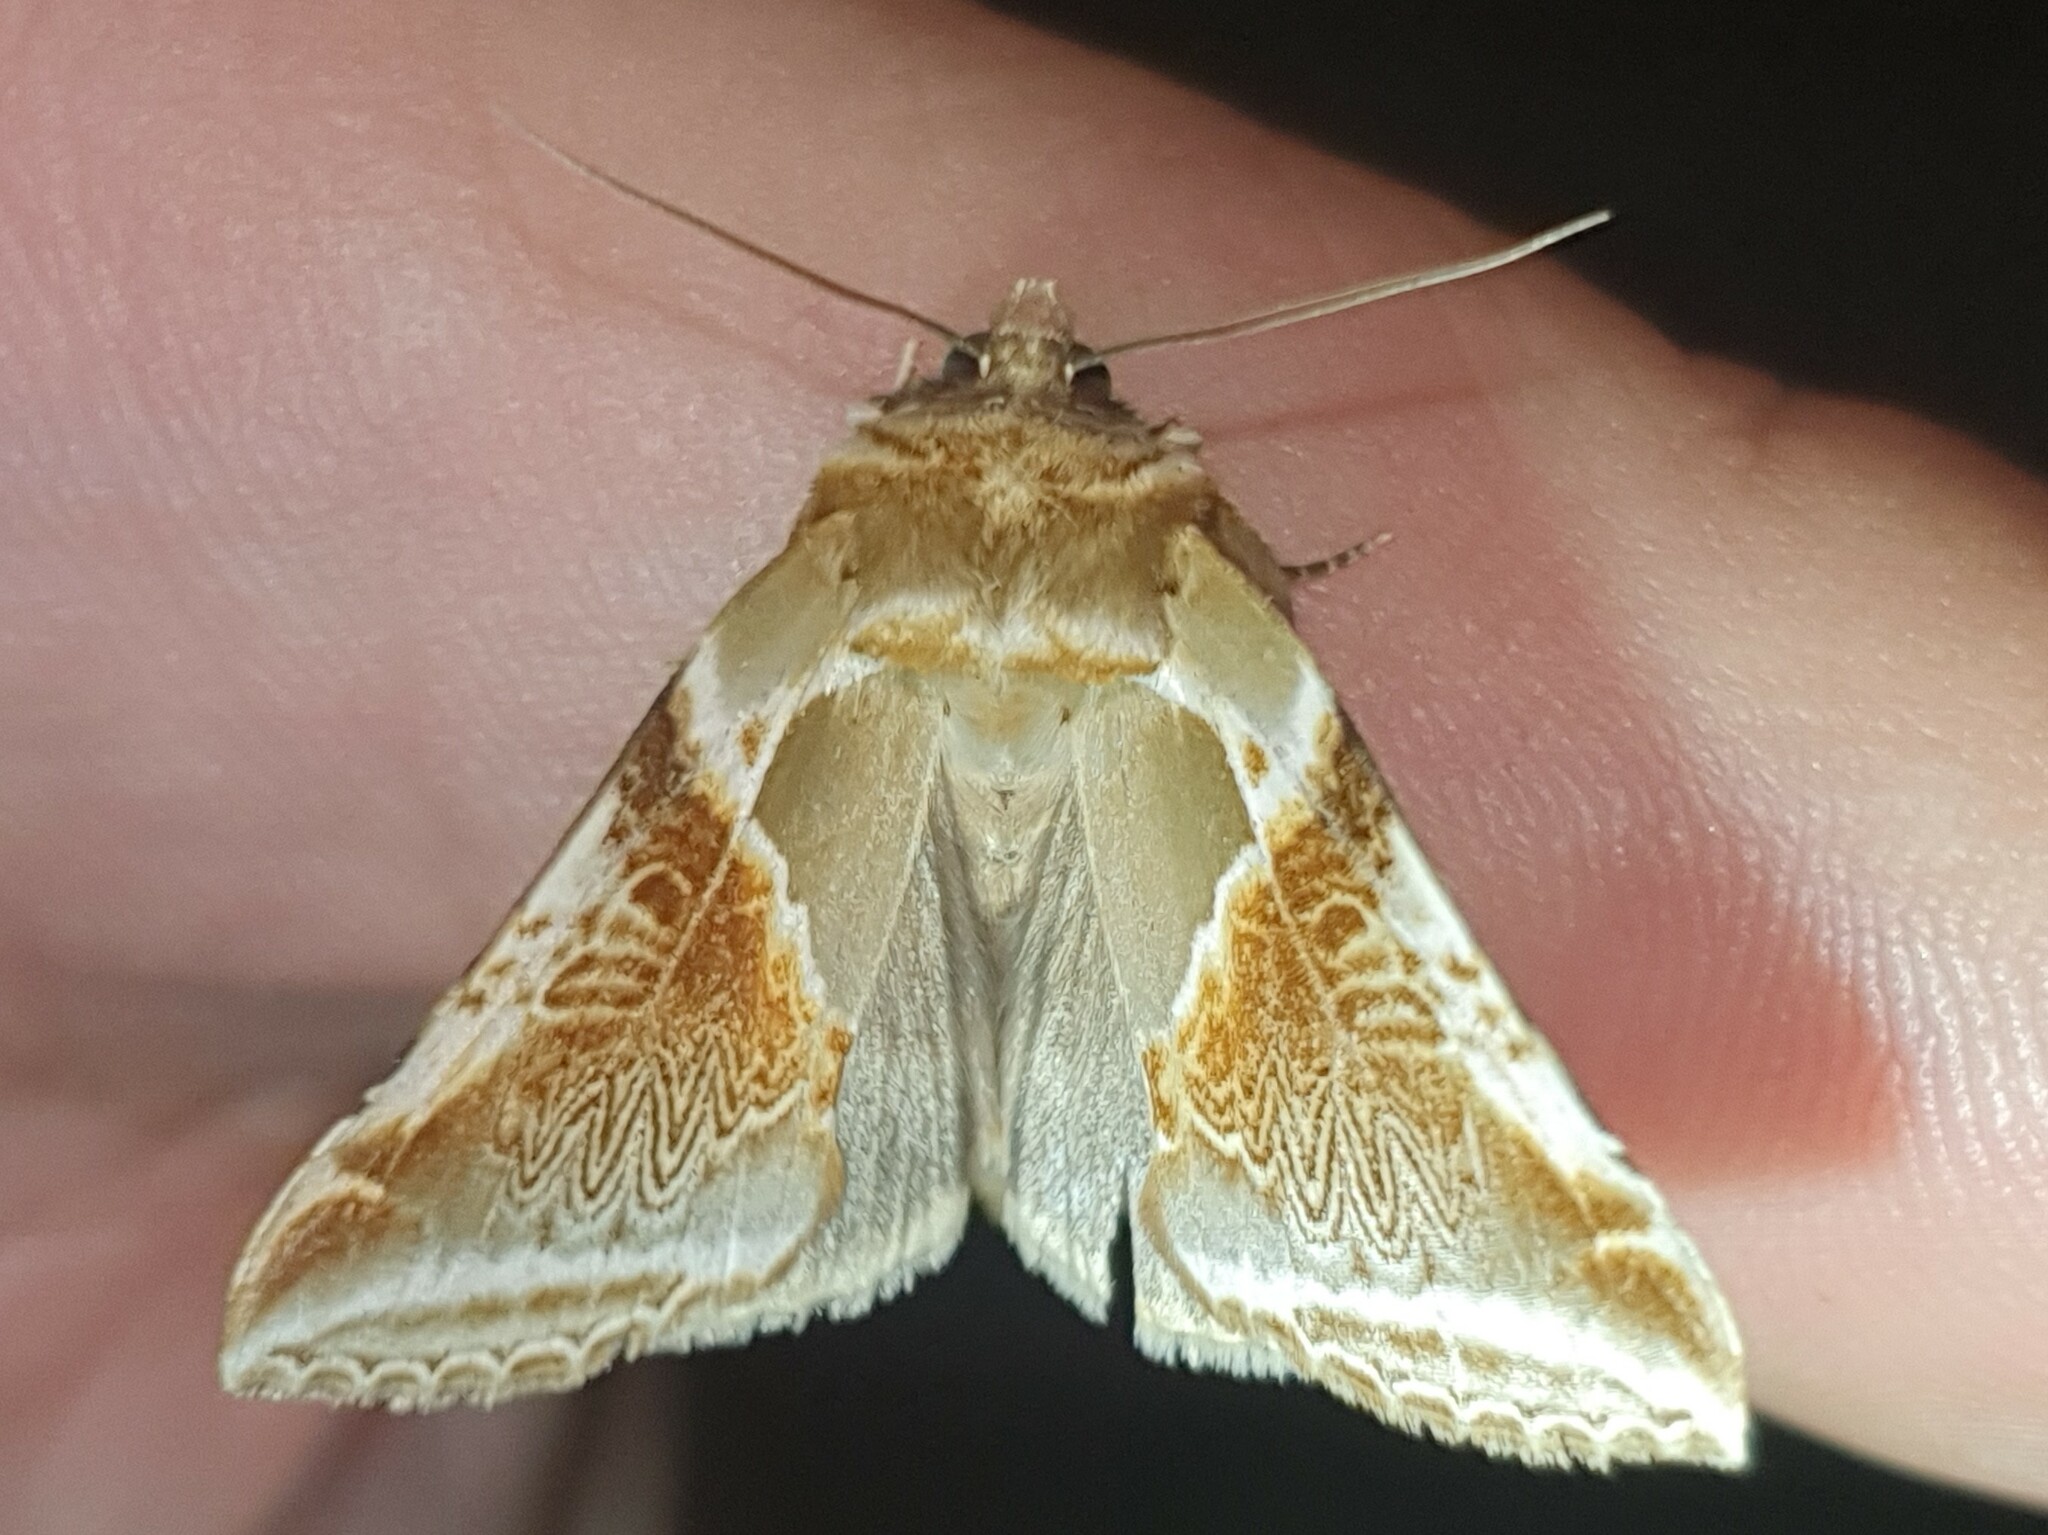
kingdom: Animalia
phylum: Arthropoda
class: Insecta
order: Lepidoptera
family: Drepanidae
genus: Habrosyne
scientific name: Habrosyne pyritoides
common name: Buff arches
